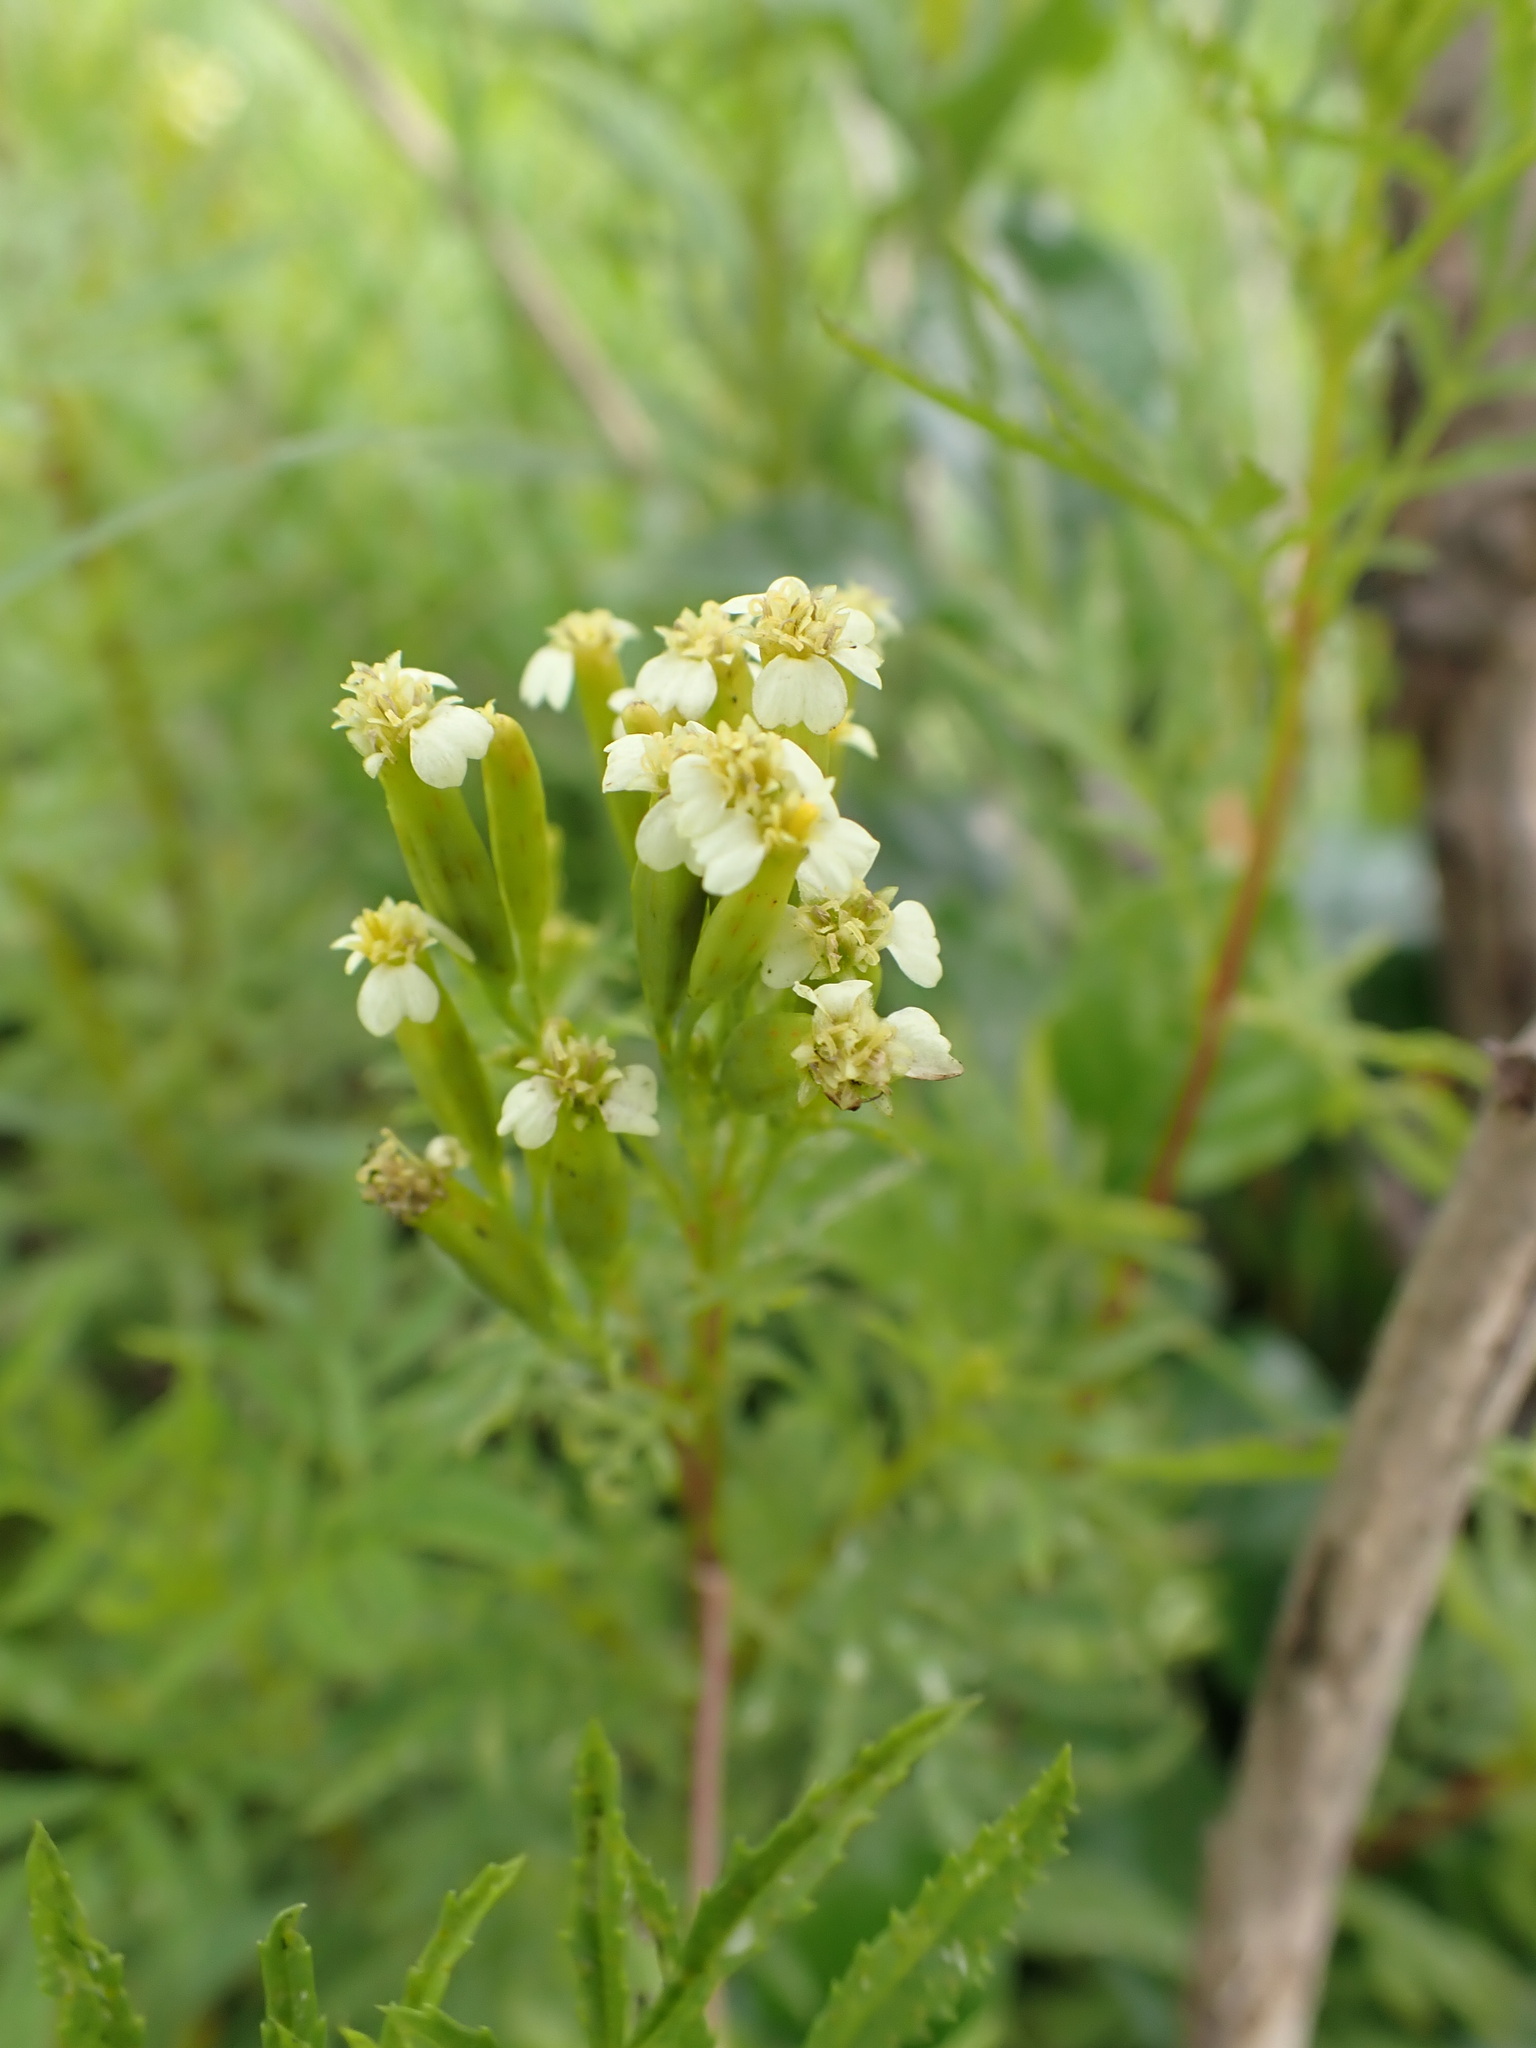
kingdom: Plantae
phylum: Tracheophyta
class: Magnoliopsida
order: Asterales
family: Asteraceae
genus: Tagetes
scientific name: Tagetes minuta
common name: Muster john henry
